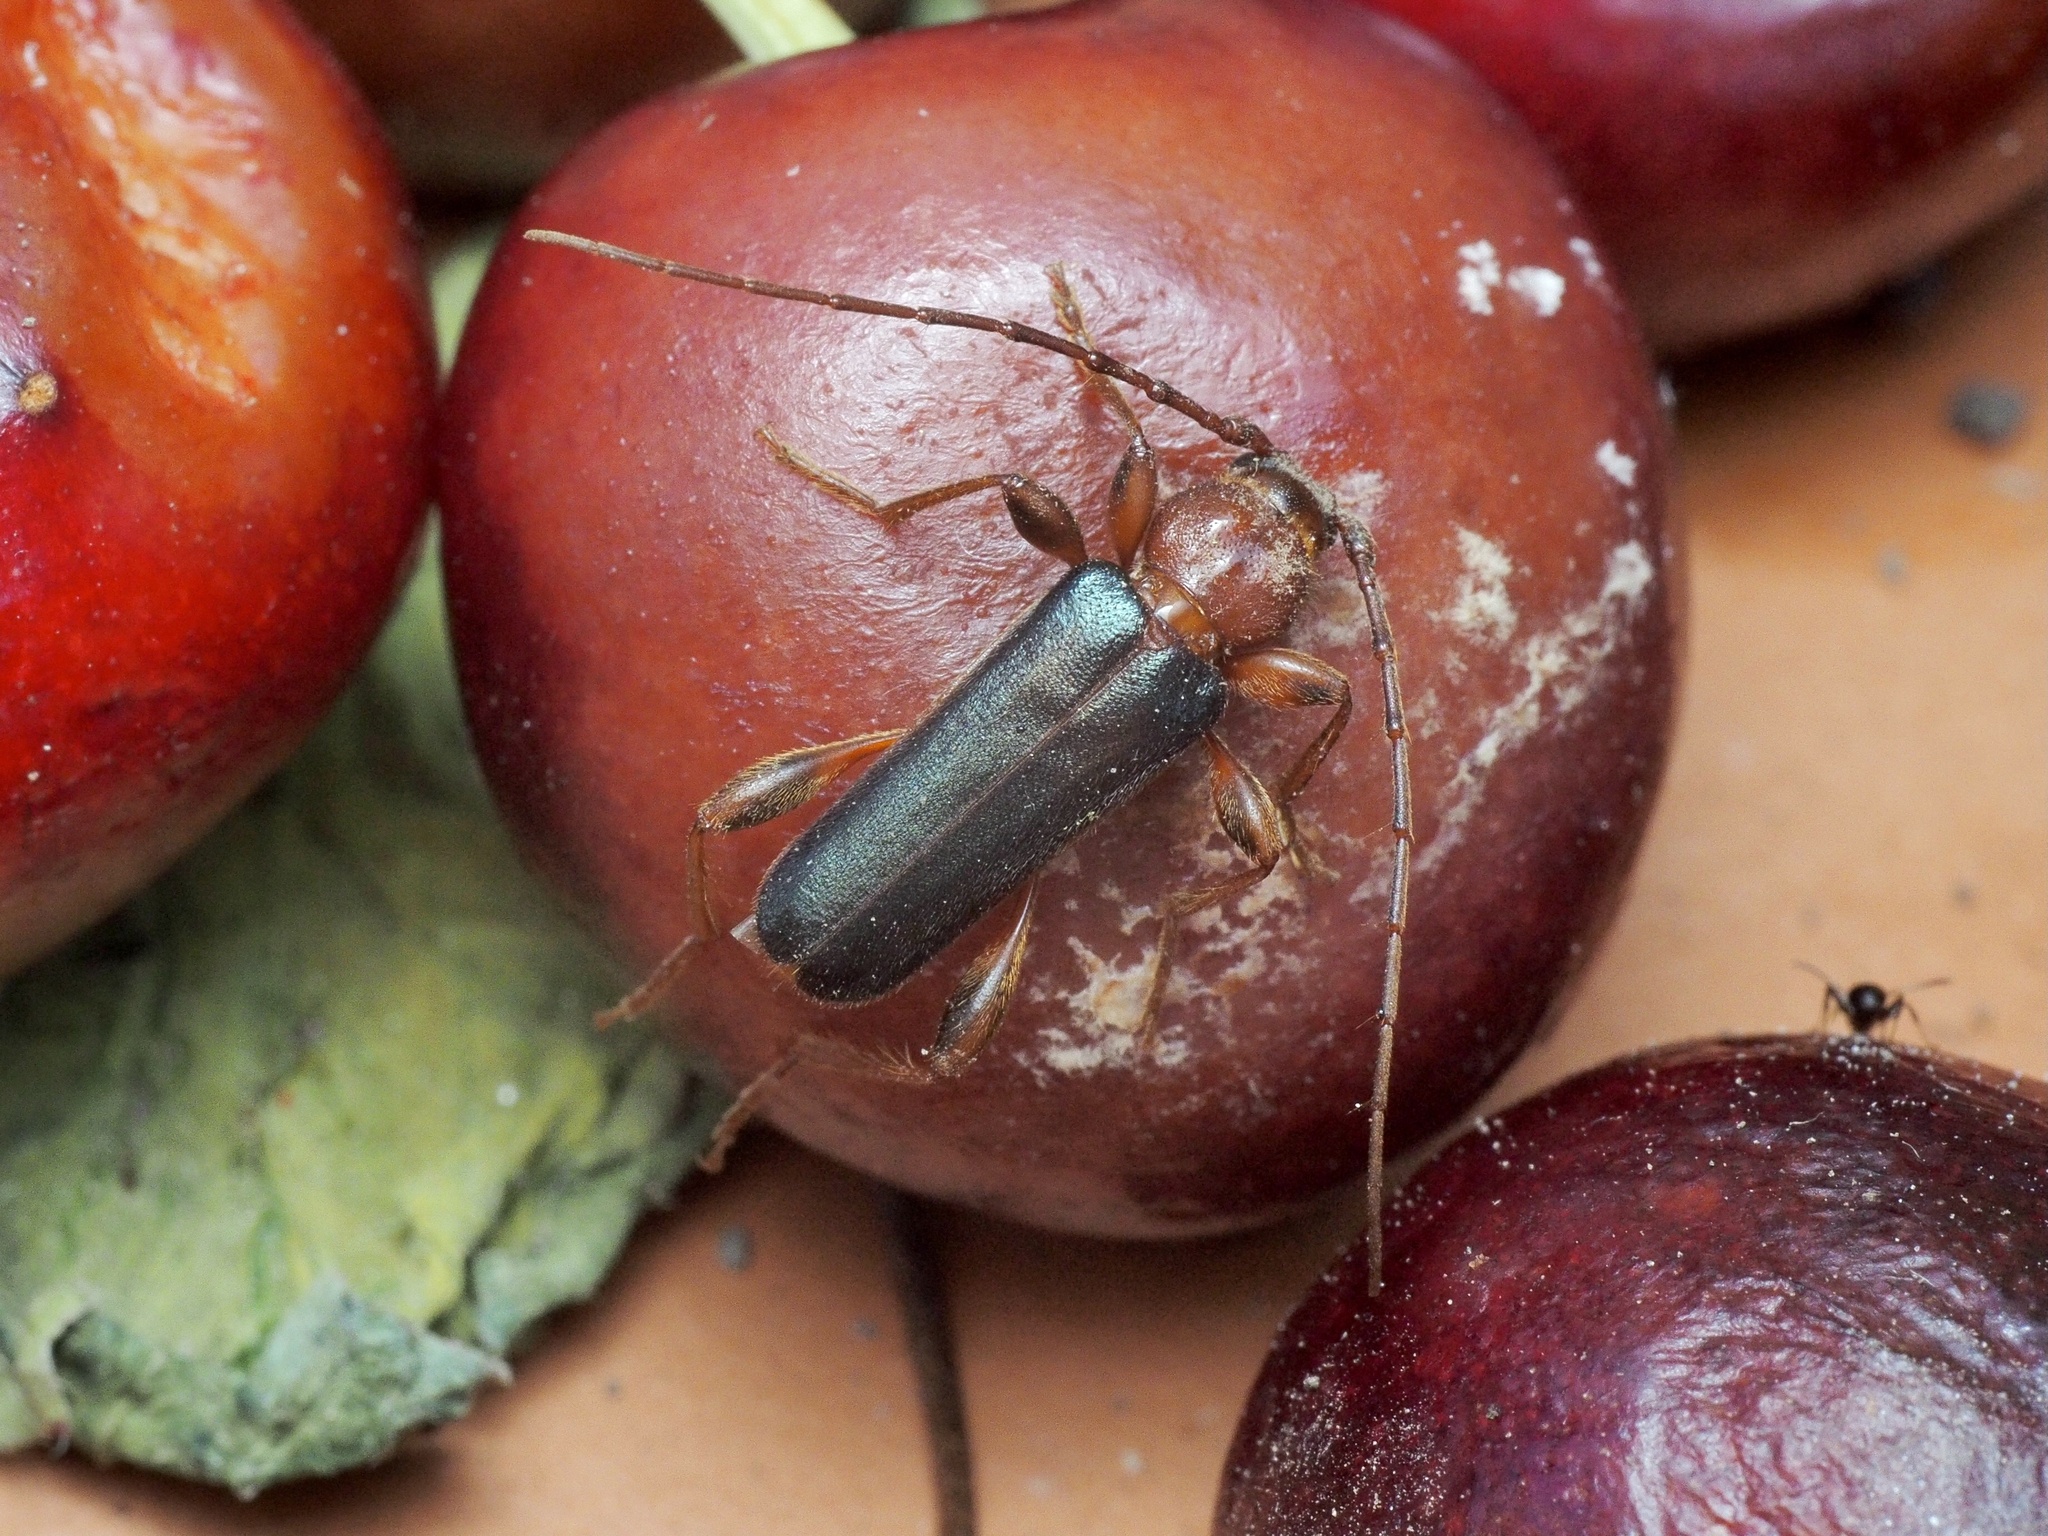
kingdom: Animalia
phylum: Arthropoda
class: Insecta
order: Coleoptera
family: Cerambycidae
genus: Phymatodes
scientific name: Phymatodes testaceus
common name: Long-horned beetle
